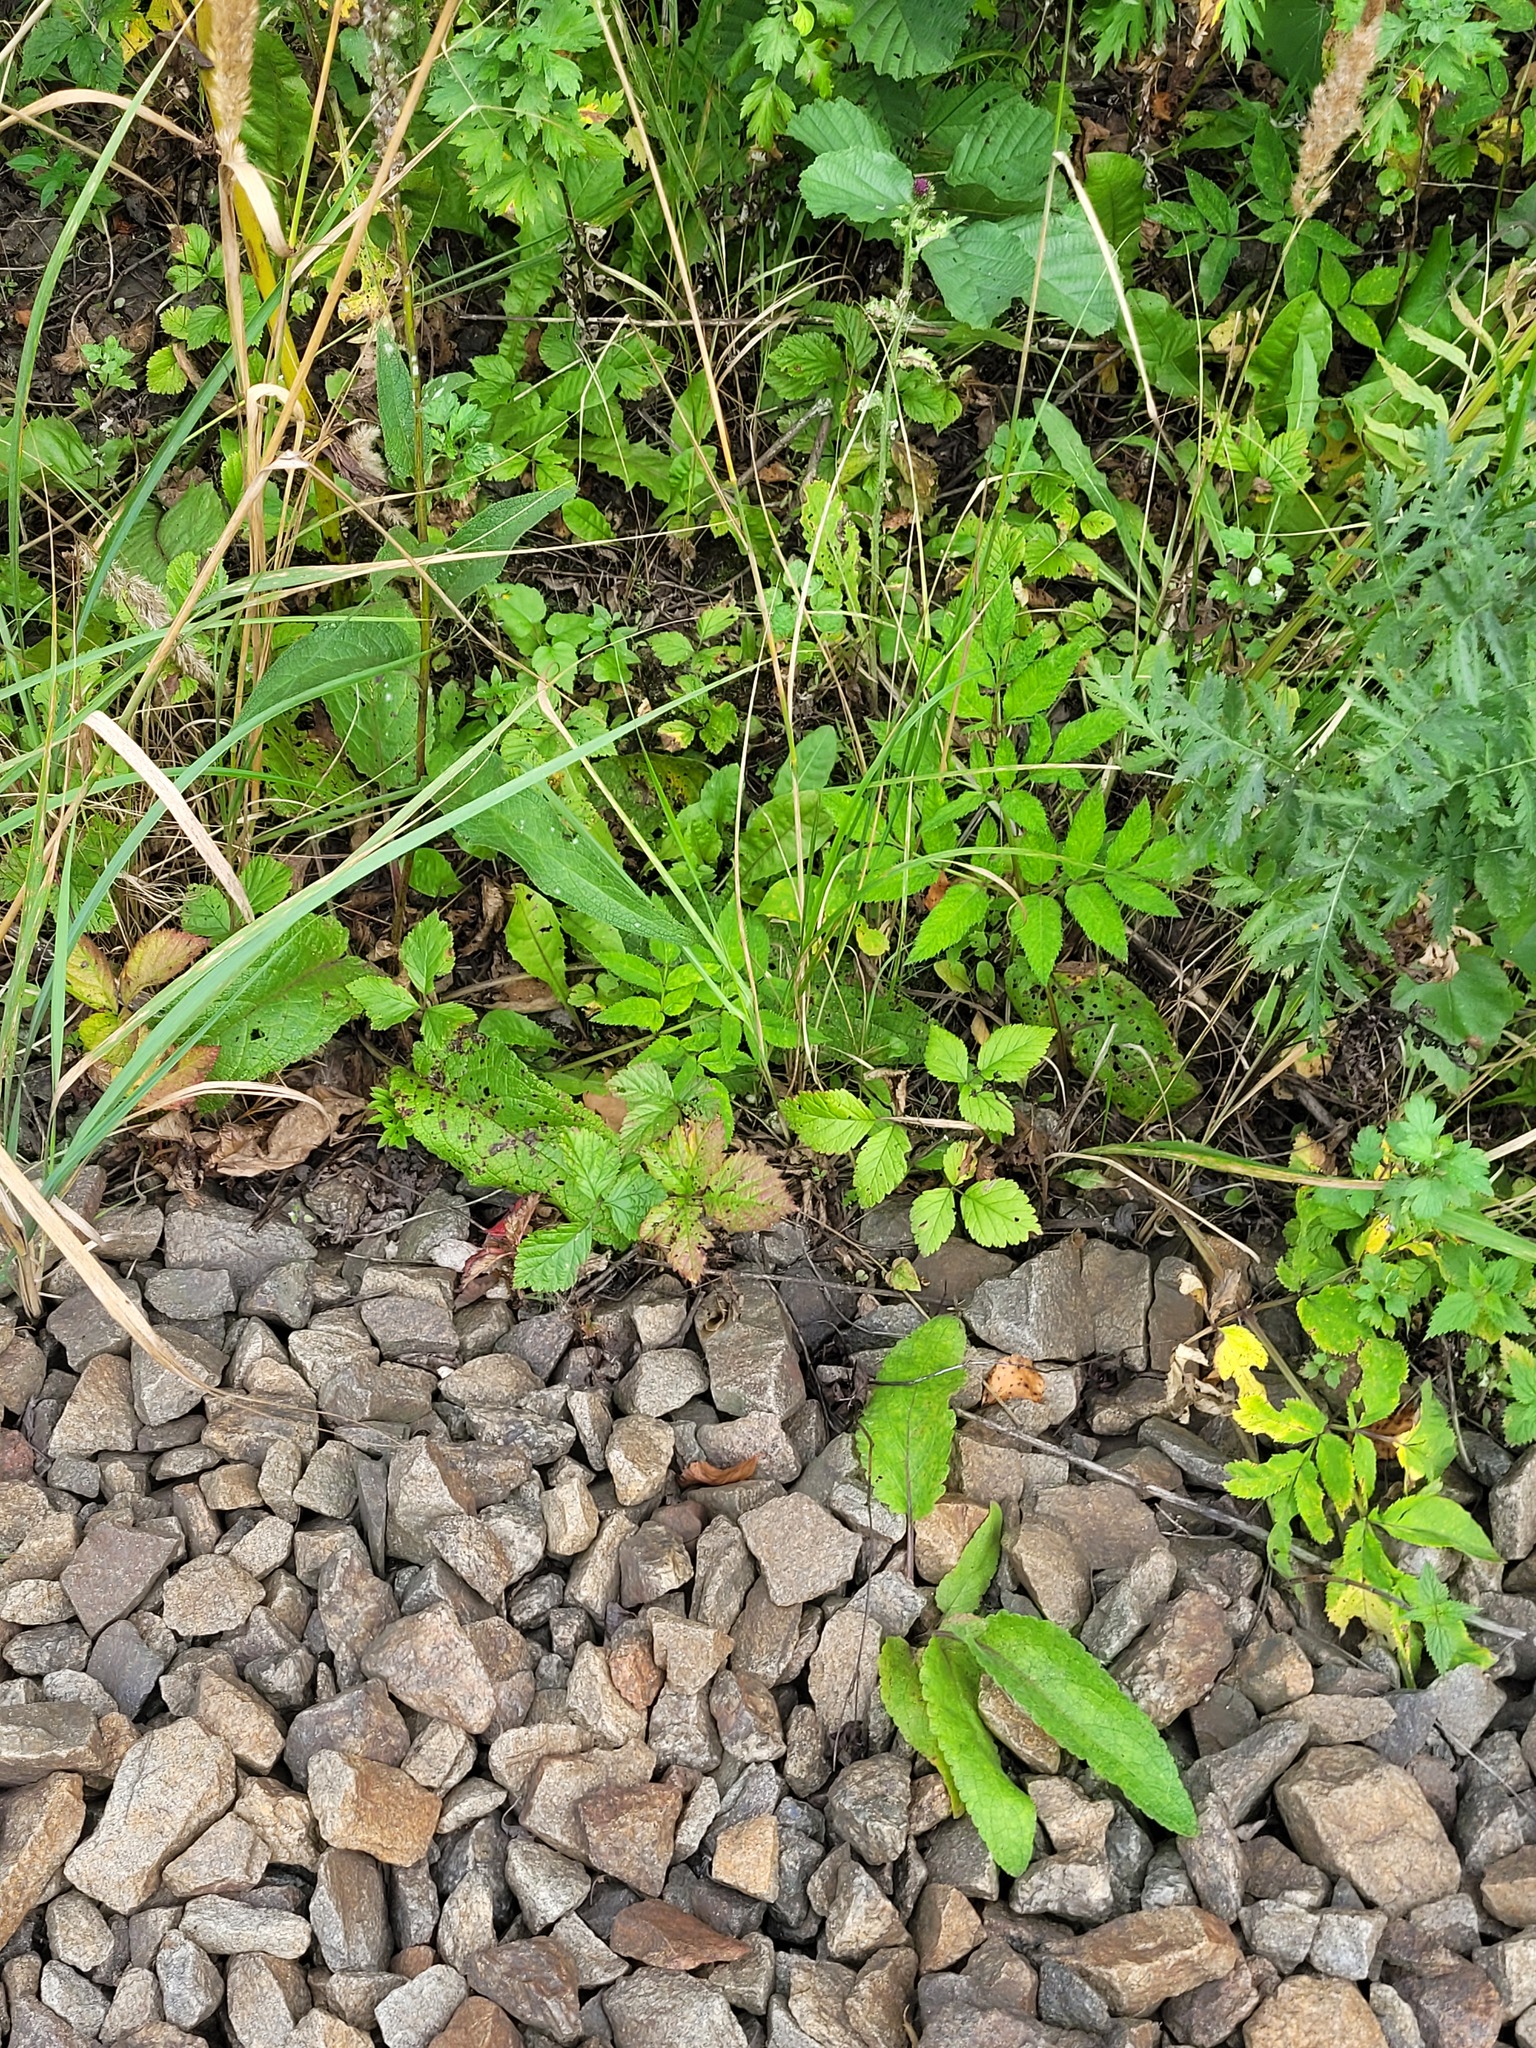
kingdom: Plantae
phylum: Tracheophyta
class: Magnoliopsida
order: Rosales
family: Rosaceae
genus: Rubus
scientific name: Rubus saxatilis
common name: Stone bramble
